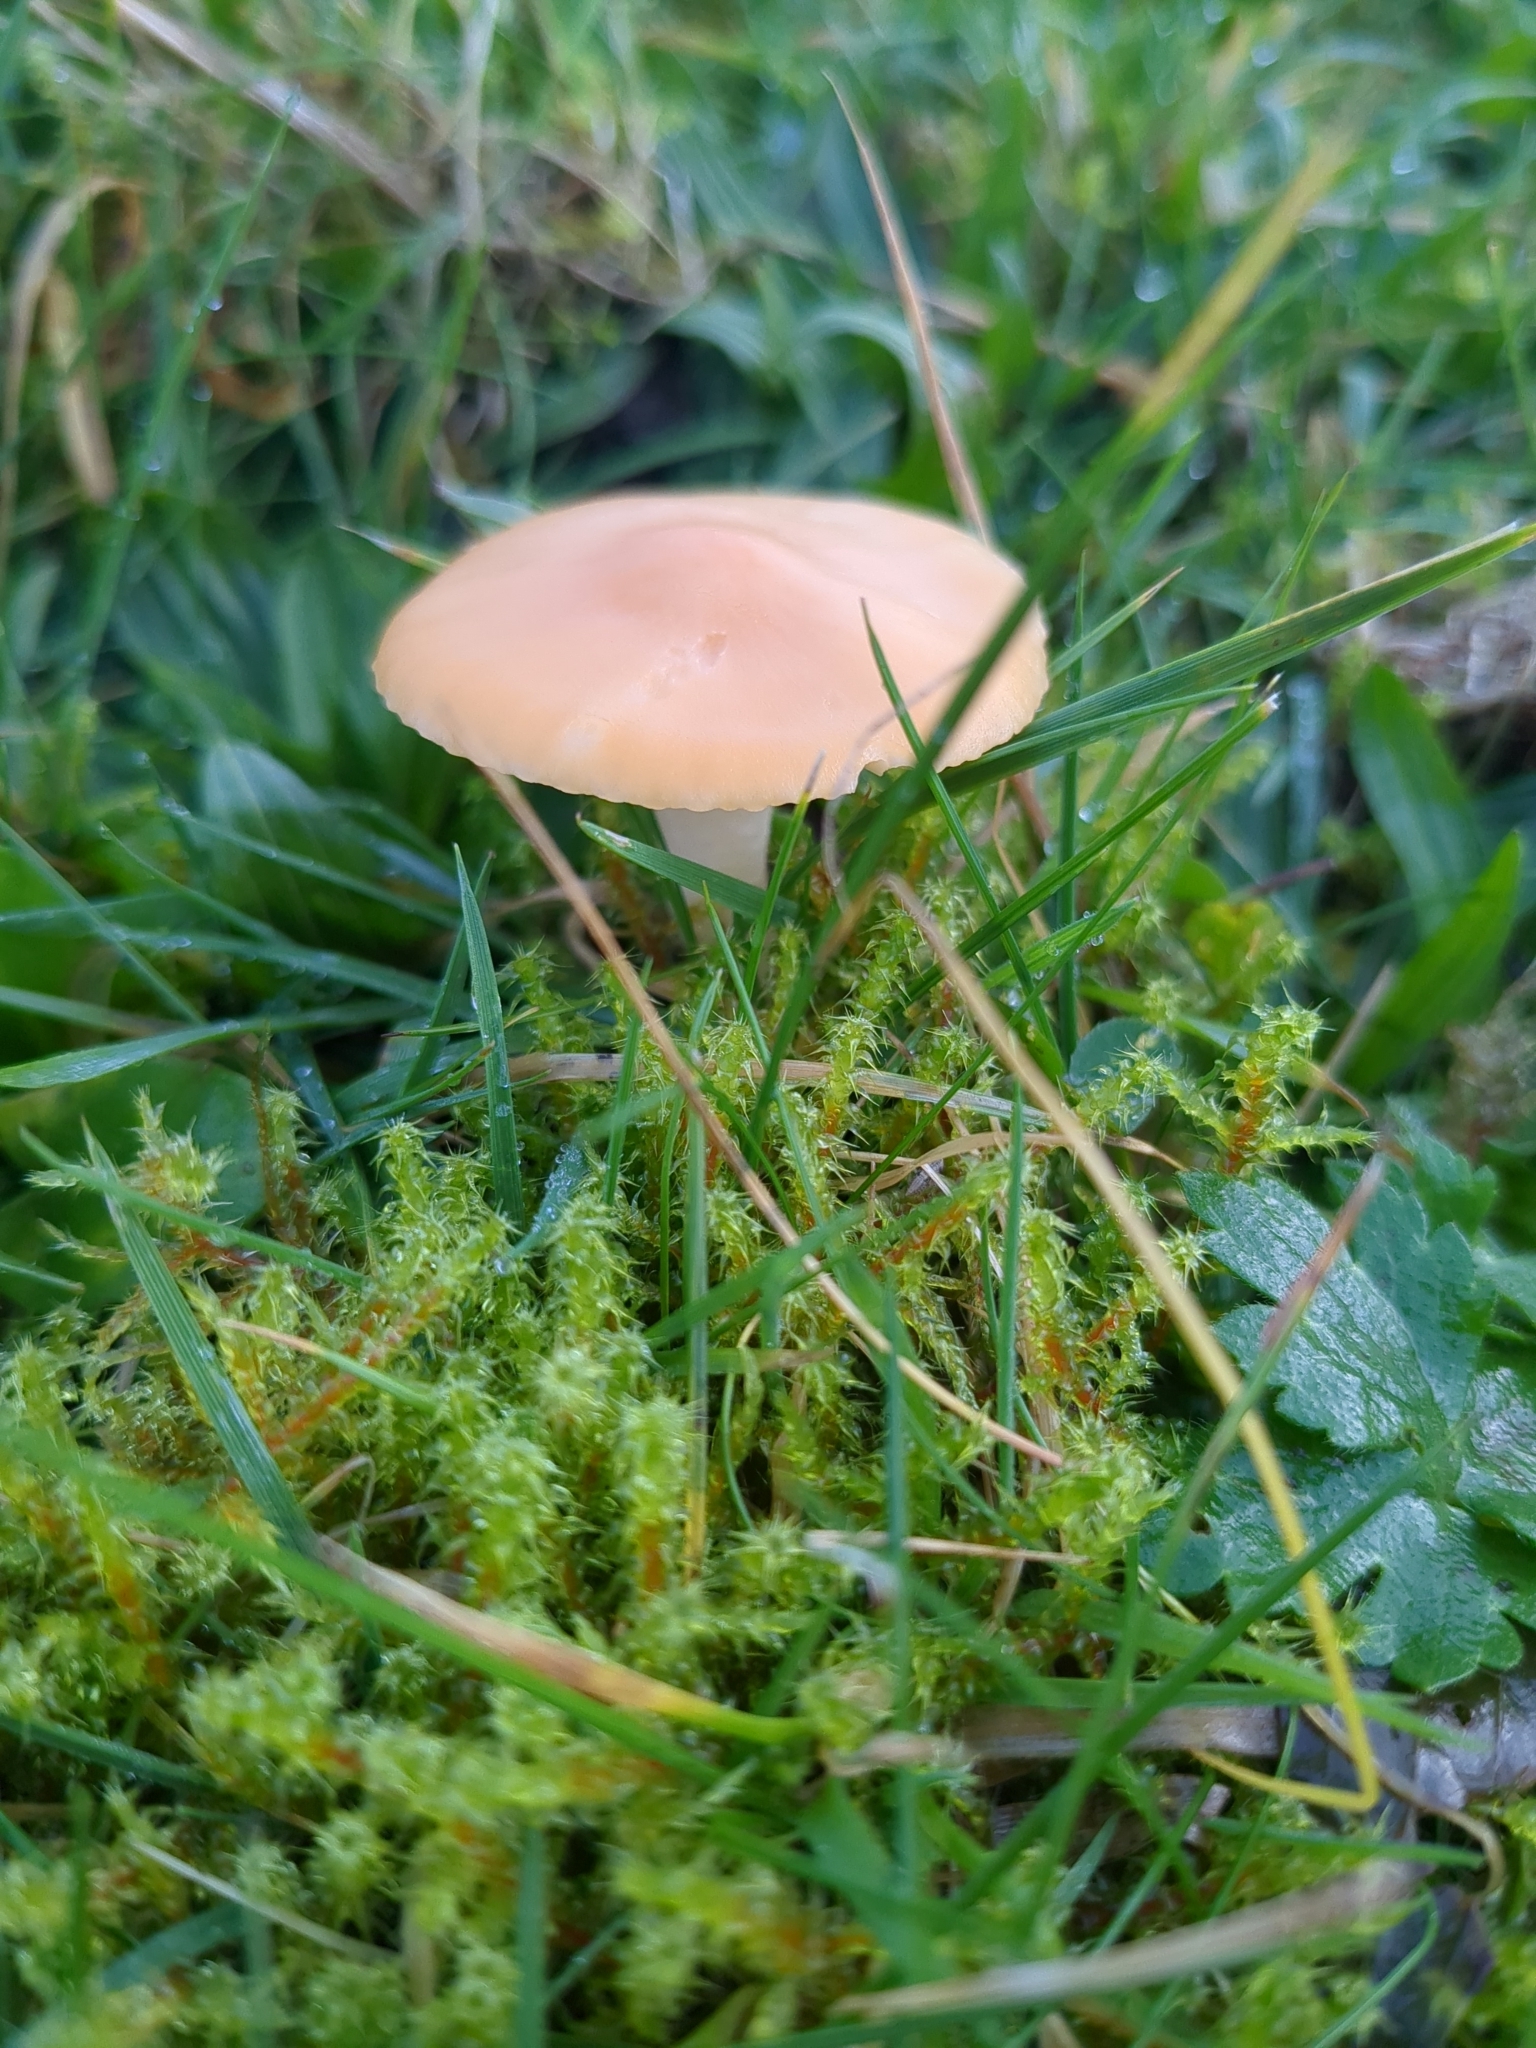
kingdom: Fungi
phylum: Basidiomycota
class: Agaricomycetes
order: Agaricales
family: Hygrophoraceae
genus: Cuphophyllus
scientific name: Cuphophyllus pratensis
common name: Meadow waxcap
